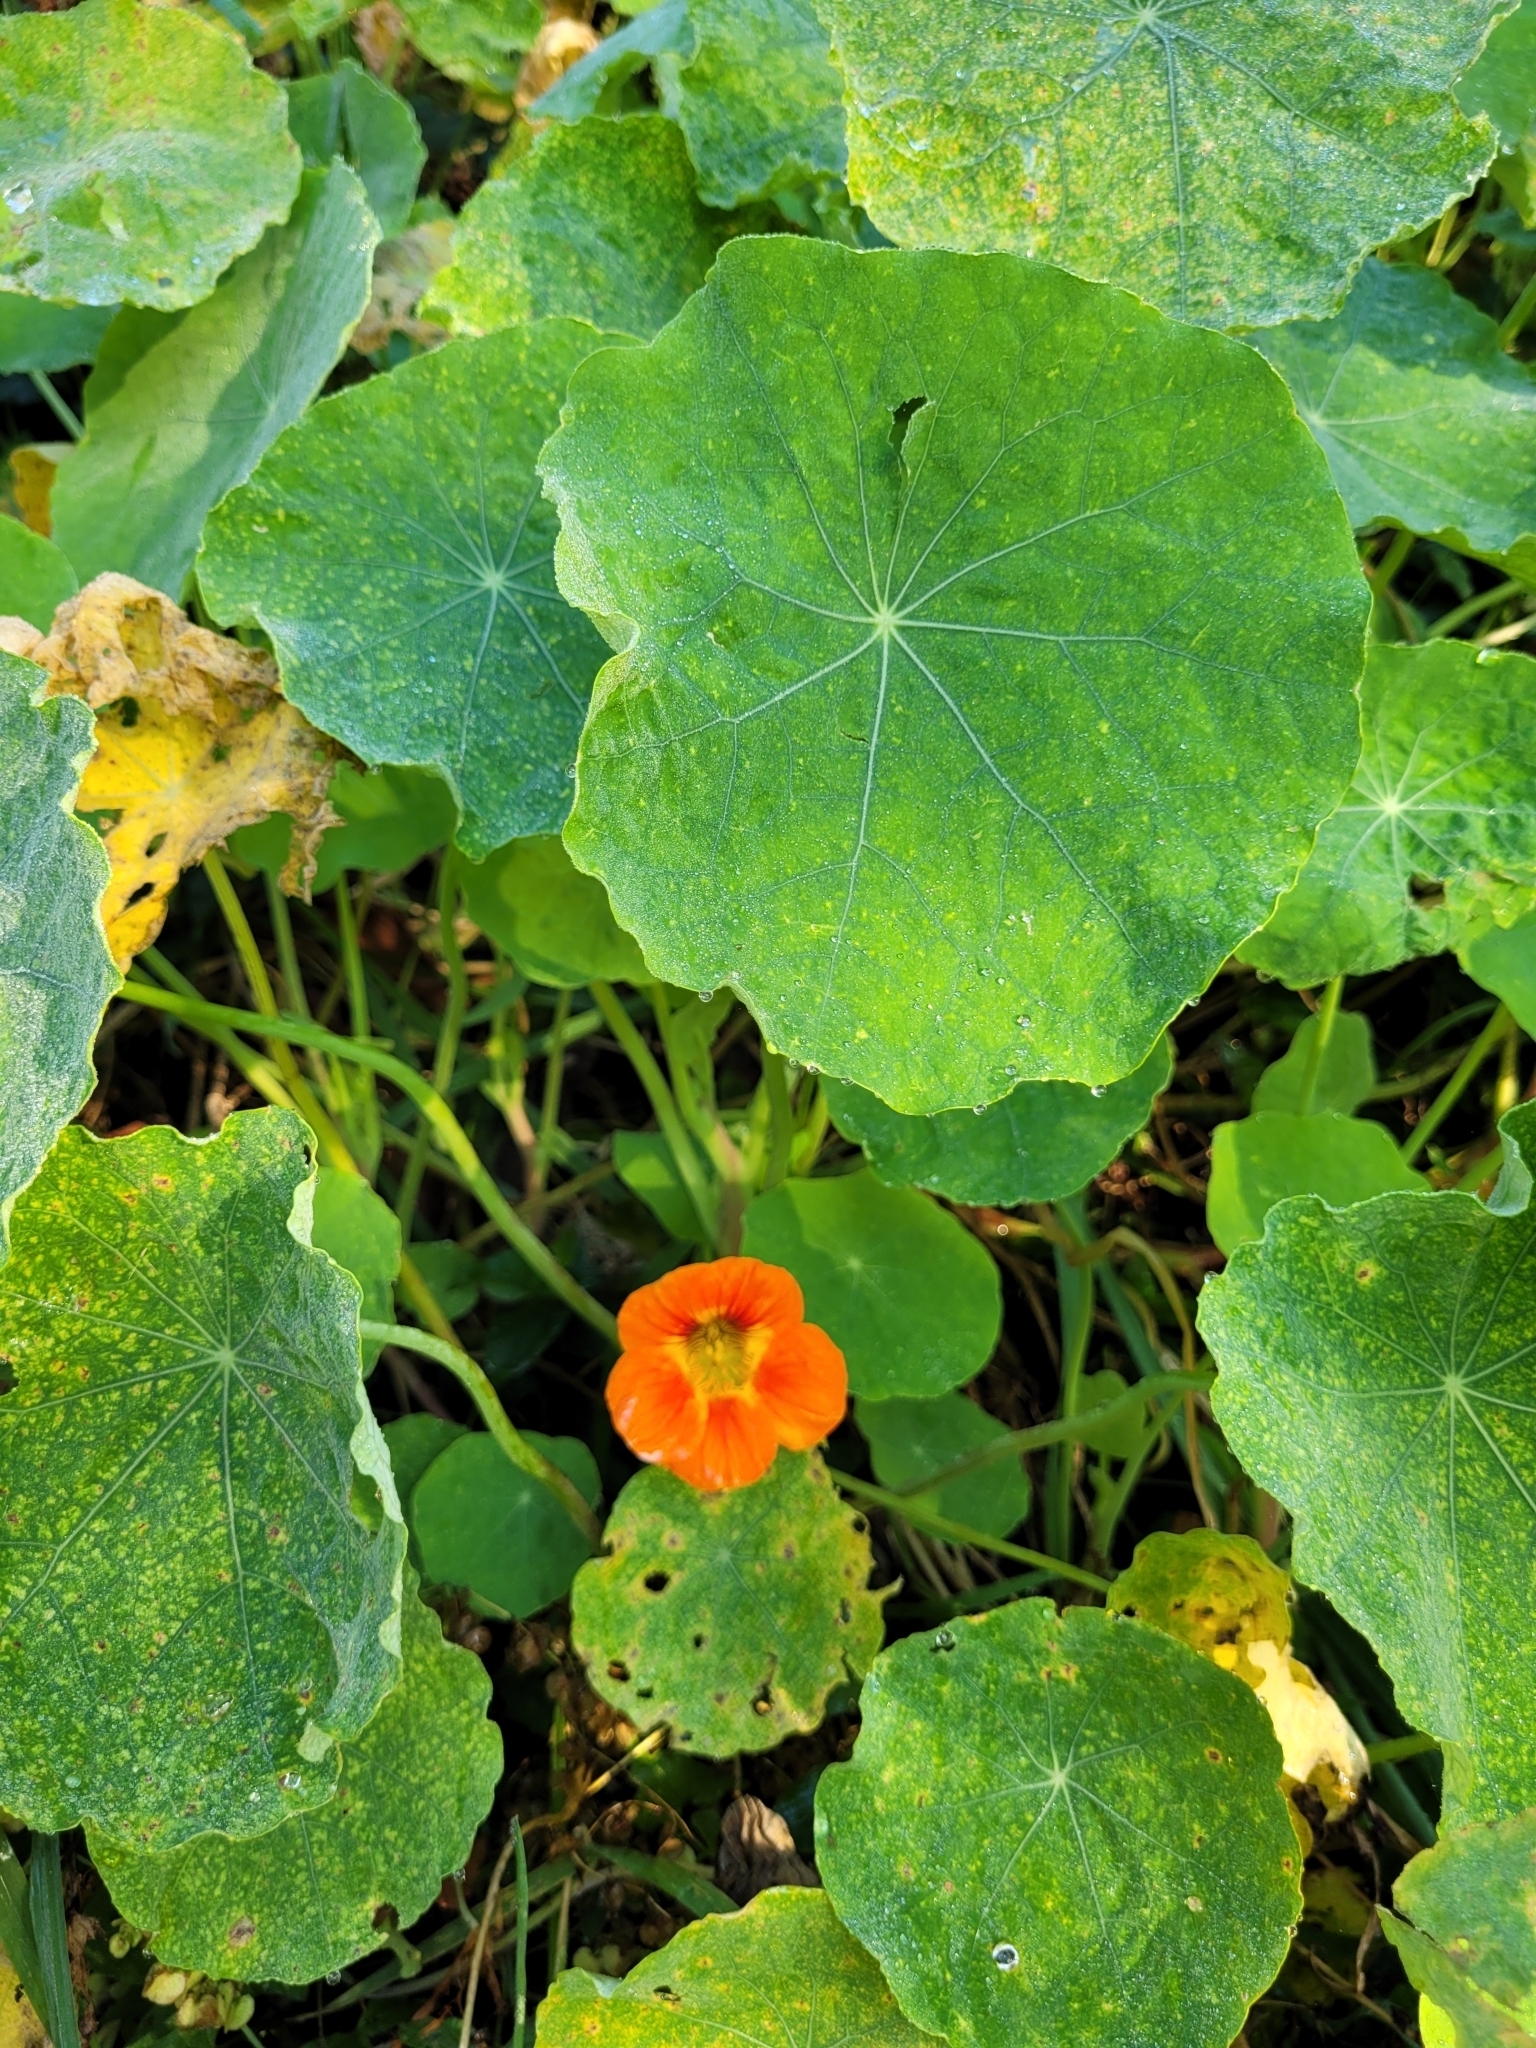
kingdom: Plantae
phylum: Tracheophyta
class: Magnoliopsida
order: Brassicales
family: Tropaeolaceae
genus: Tropaeolum
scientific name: Tropaeolum majus
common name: Nasturtium
